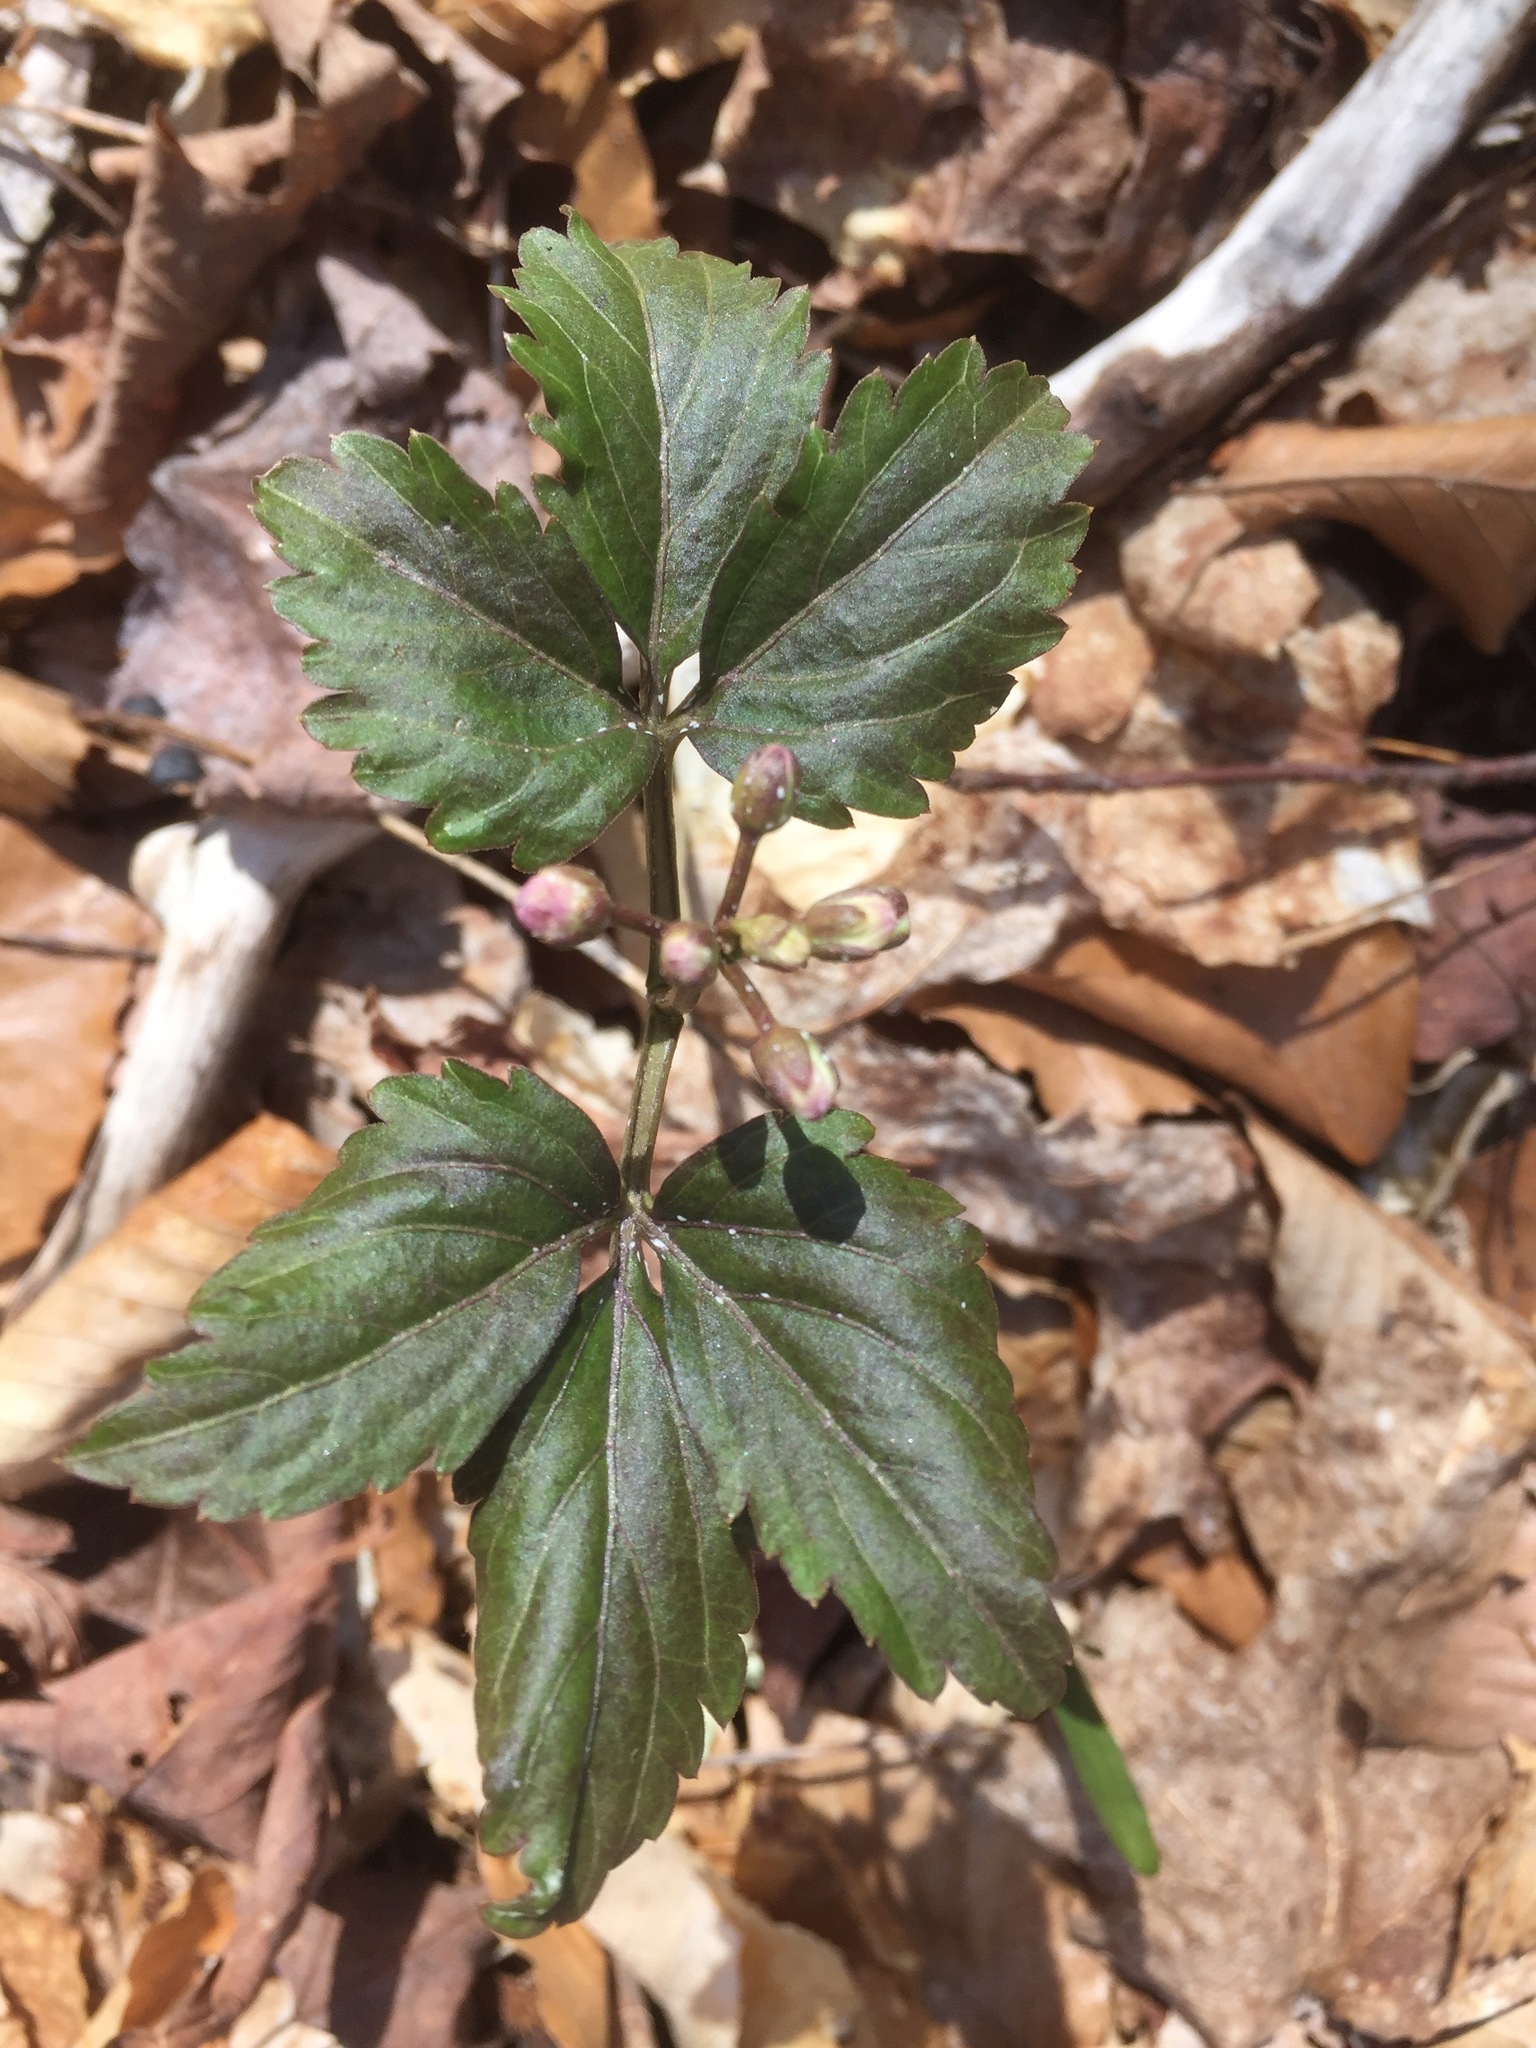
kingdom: Plantae
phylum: Tracheophyta
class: Magnoliopsida
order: Brassicales
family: Brassicaceae
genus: Cardamine
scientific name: Cardamine diphylla
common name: Broad-leaved toothwort
